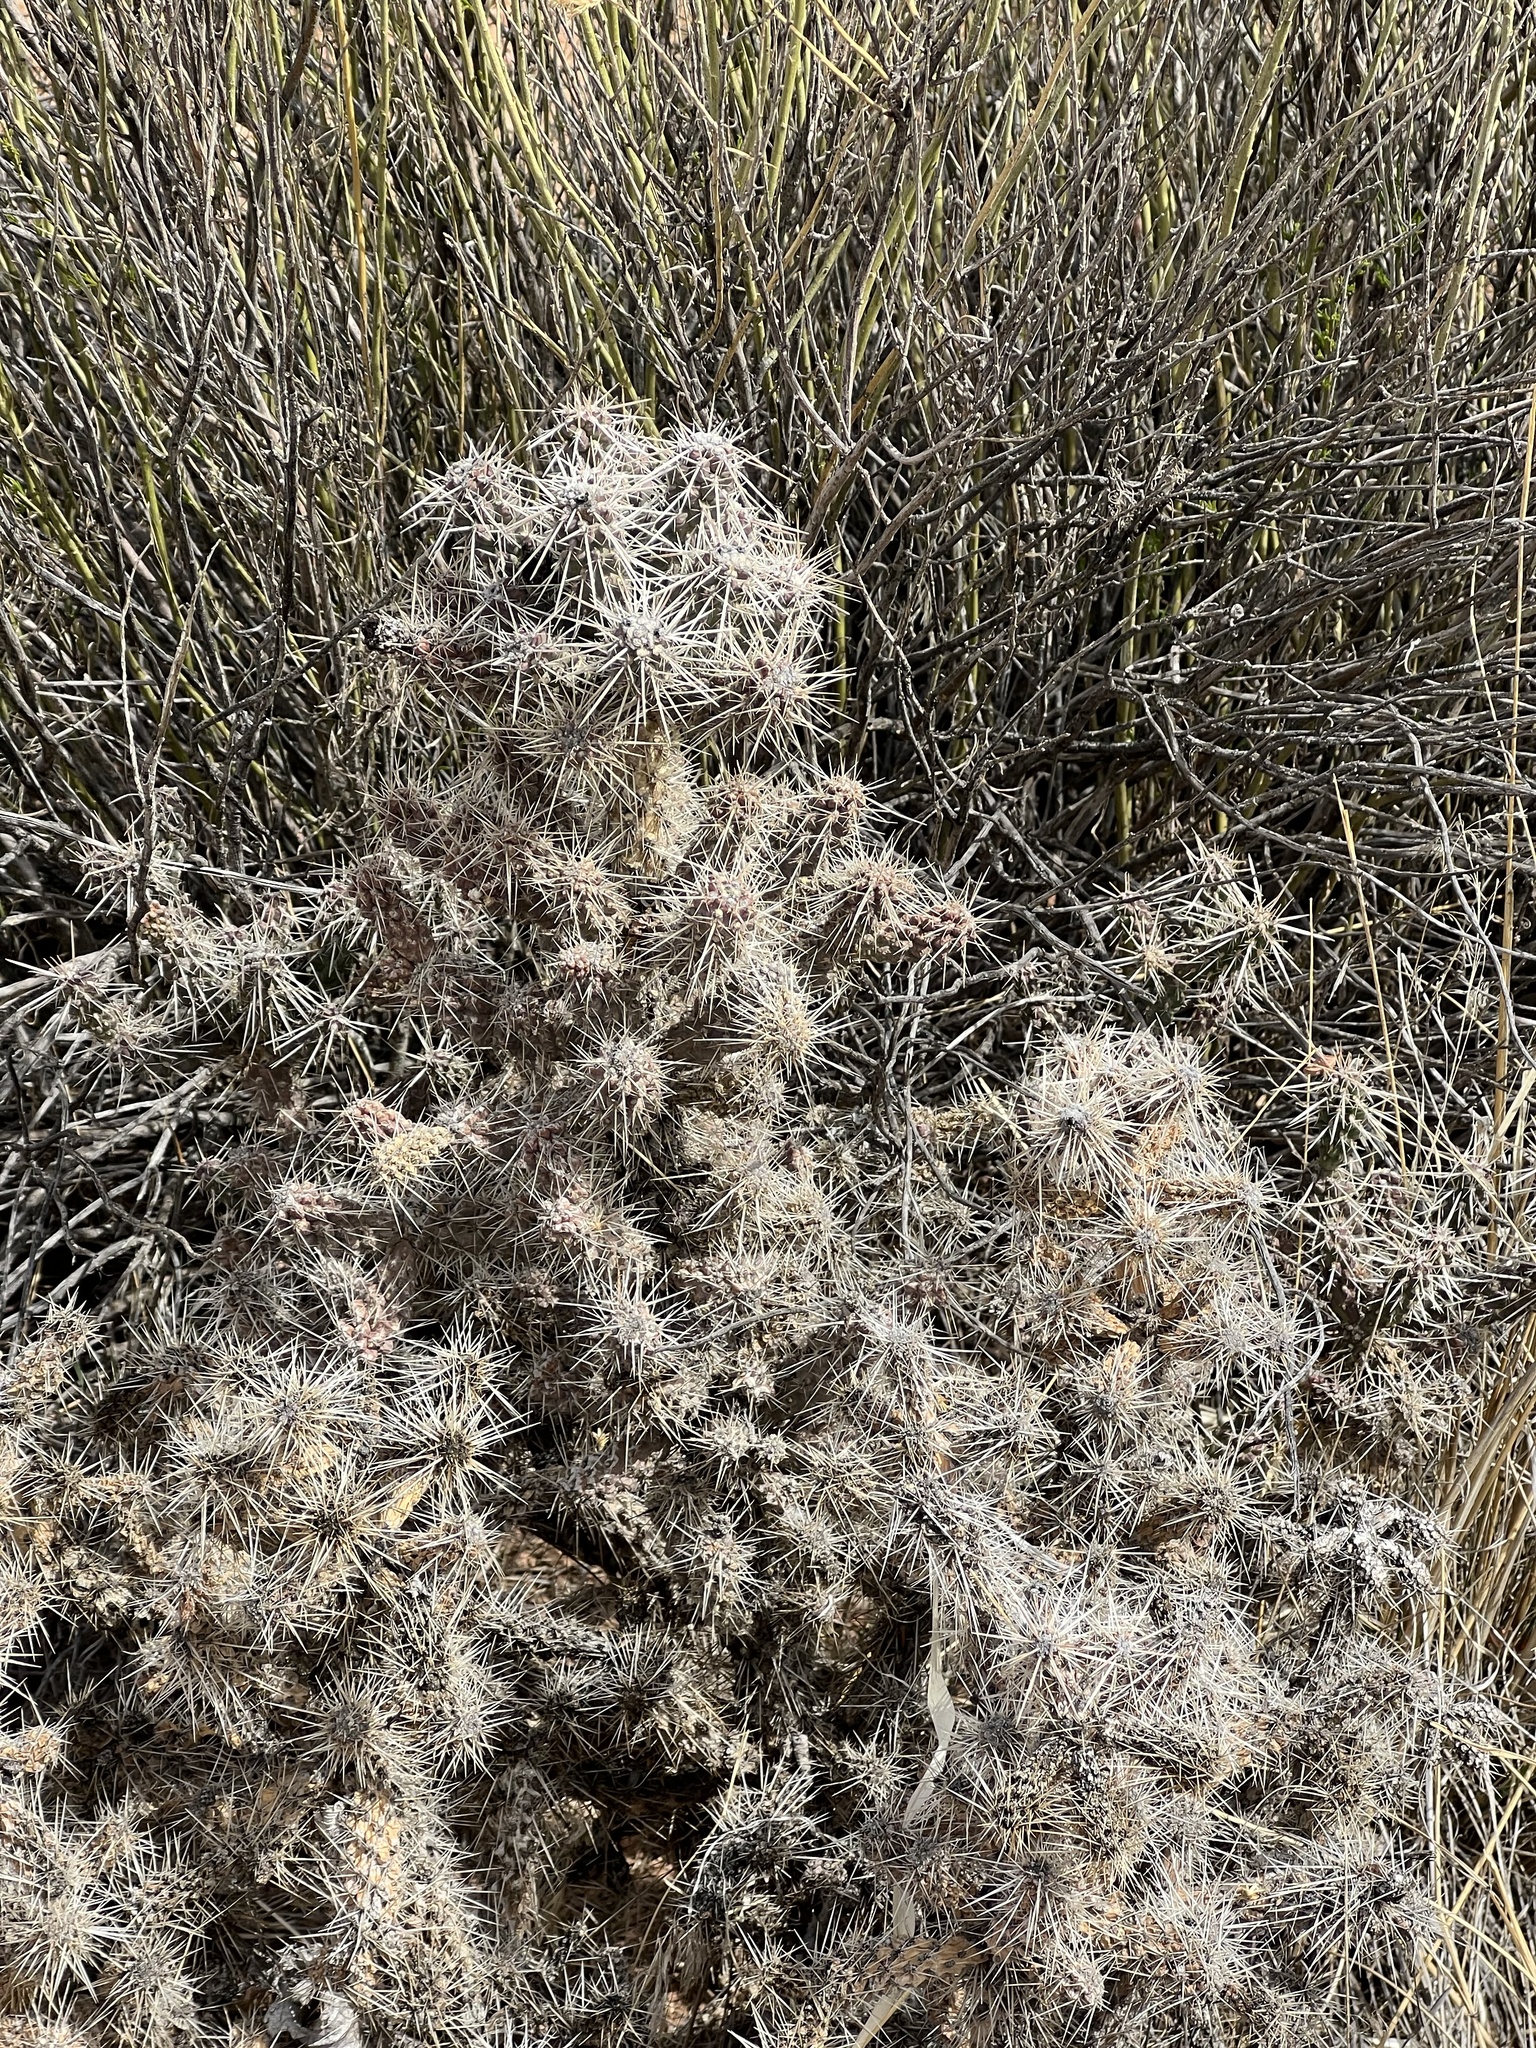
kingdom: Plantae
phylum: Tracheophyta
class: Magnoliopsida
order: Caryophyllales
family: Cactaceae
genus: Cylindropuntia
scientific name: Cylindropuntia whipplei
